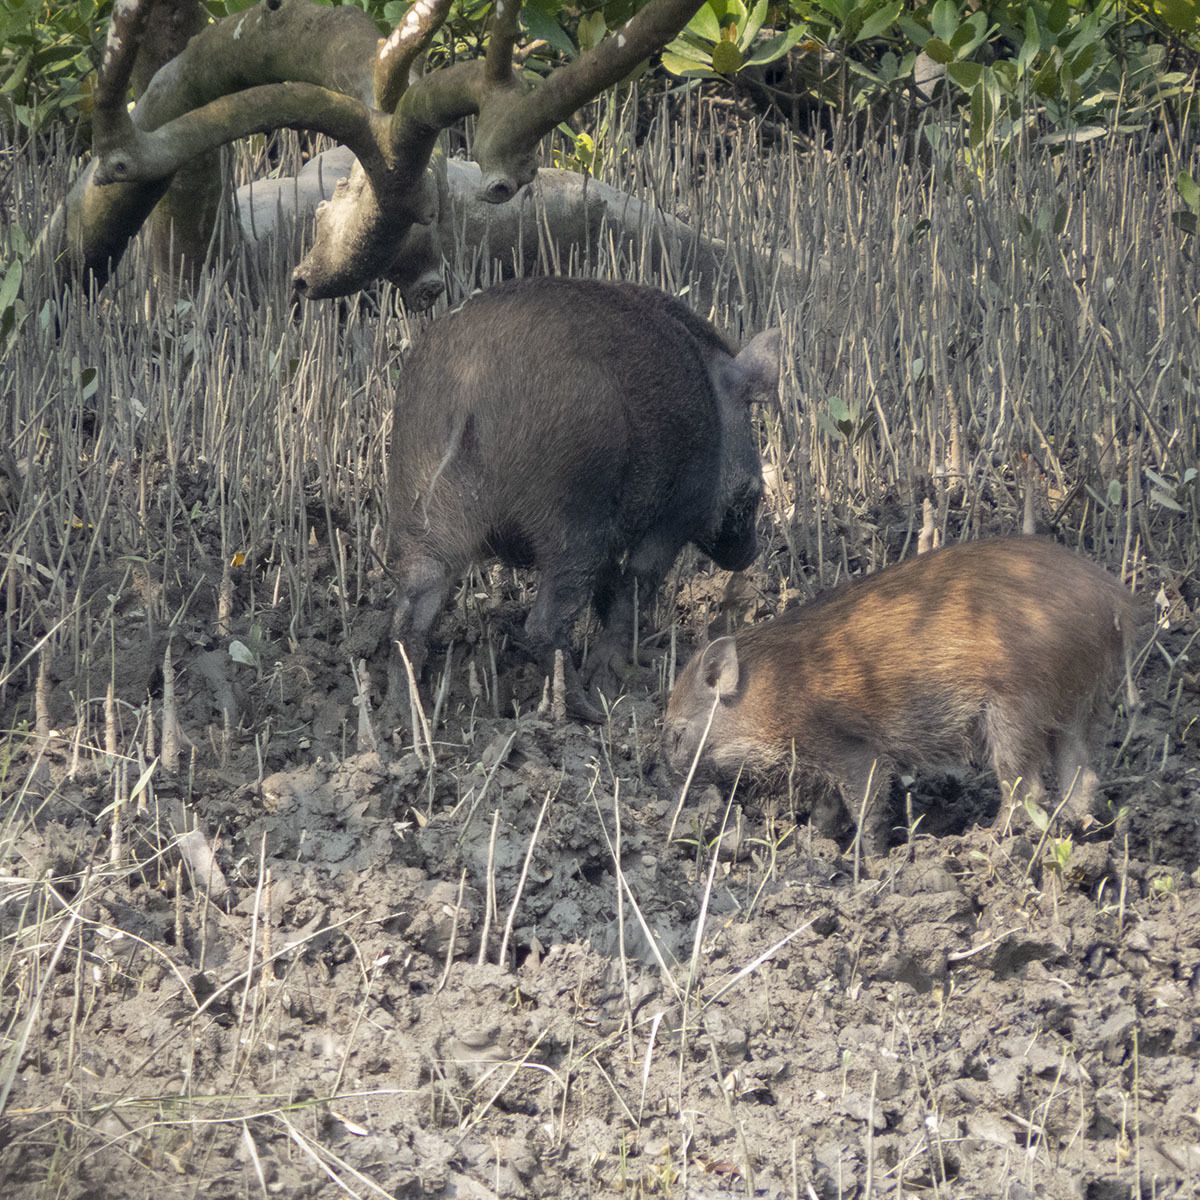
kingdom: Animalia
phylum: Chordata
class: Mammalia
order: Artiodactyla
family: Suidae
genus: Sus
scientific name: Sus scrofa
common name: Wild boar
